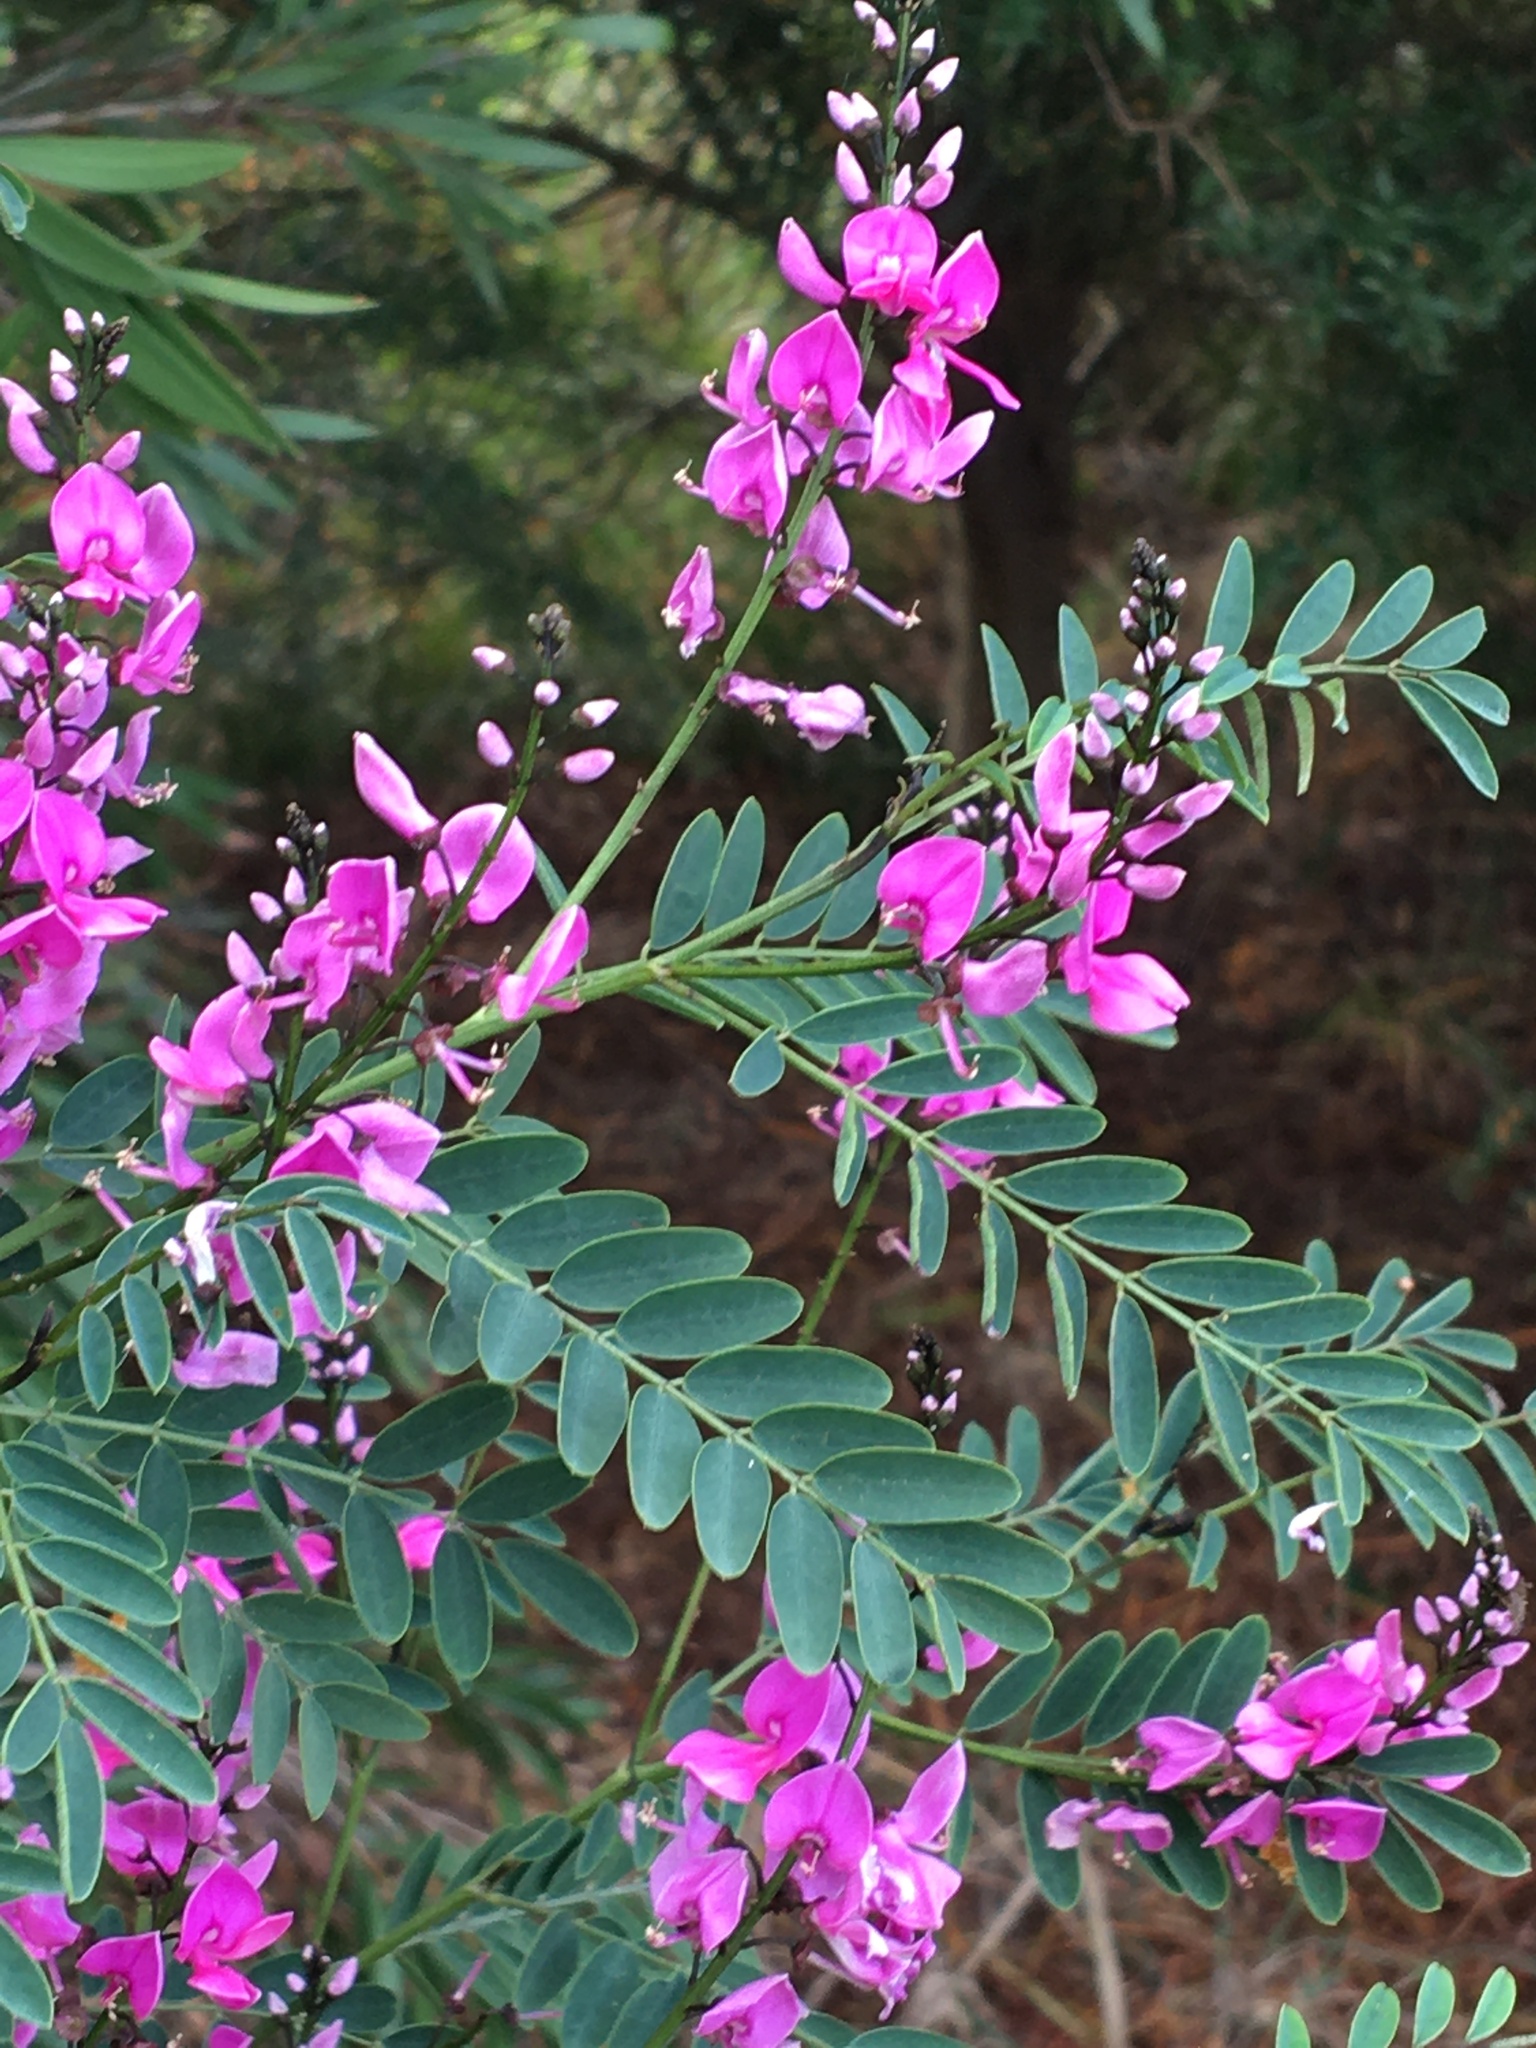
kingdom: Plantae
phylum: Tracheophyta
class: Magnoliopsida
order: Fabales
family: Fabaceae
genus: Indigofera
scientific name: Indigofera australis
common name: Australian indigo
